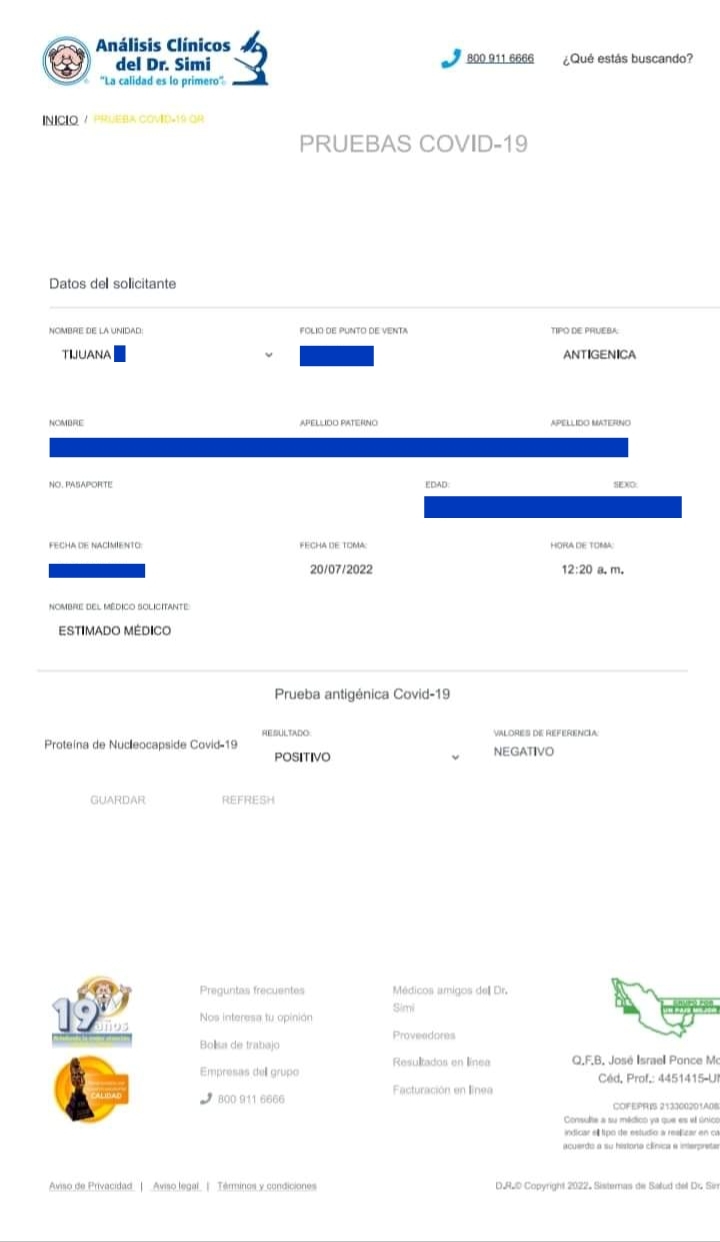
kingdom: Viruses
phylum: Pisuviricota
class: Pisoniviricetes
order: Nidovirales
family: Coronaviridae
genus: Betacoronavirus
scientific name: Betacoronavirus
